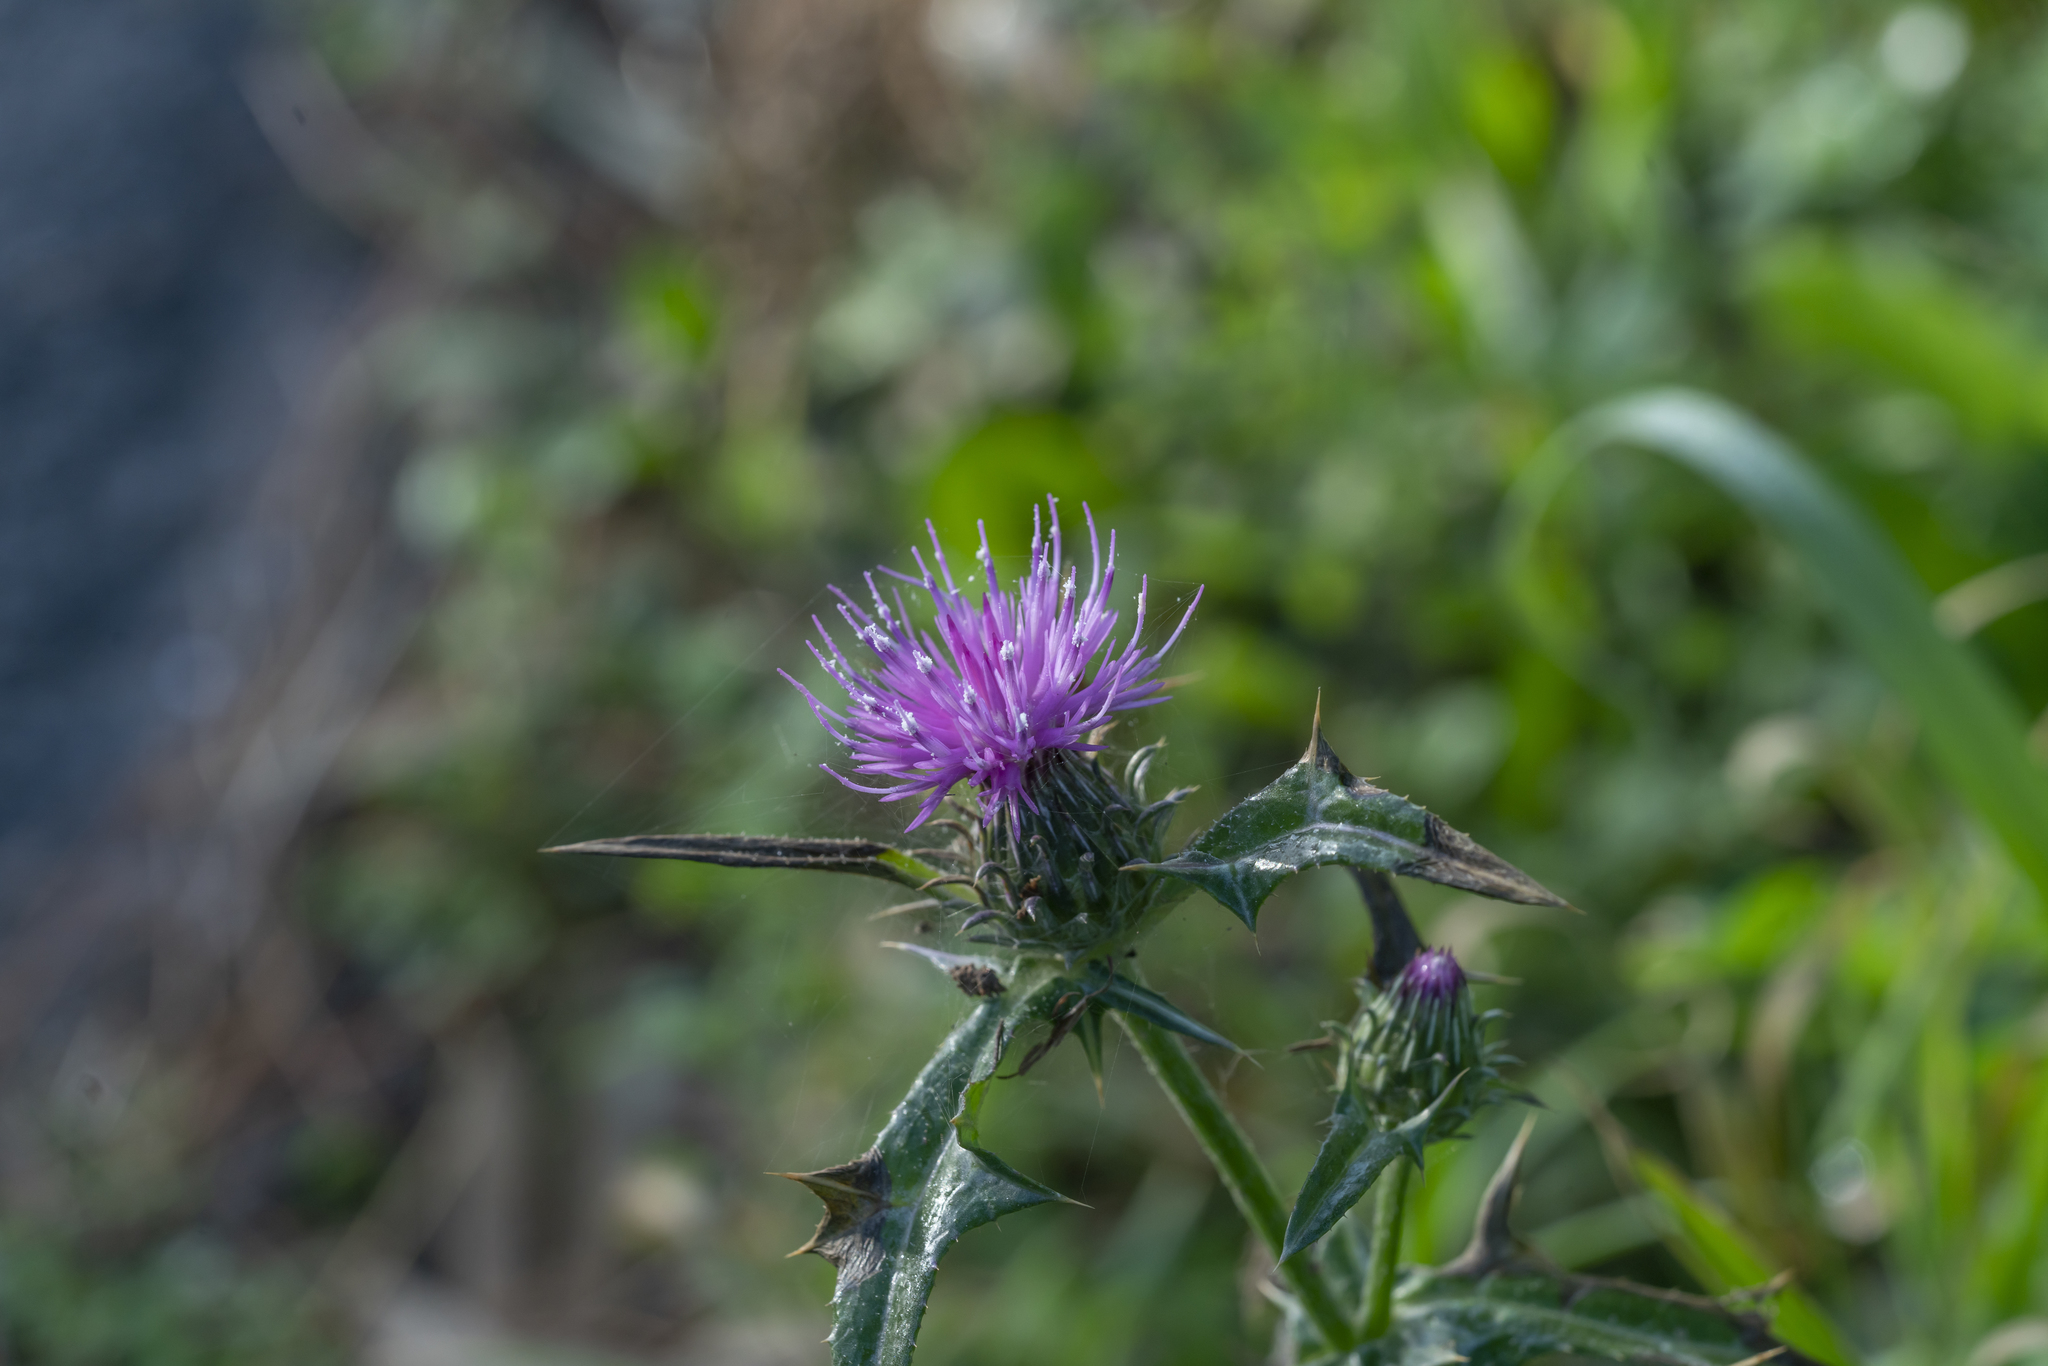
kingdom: Plantae
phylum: Tracheophyta
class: Magnoliopsida
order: Asterales
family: Asteraceae
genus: Notobasis
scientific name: Notobasis syriaca
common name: Syrian thistle
